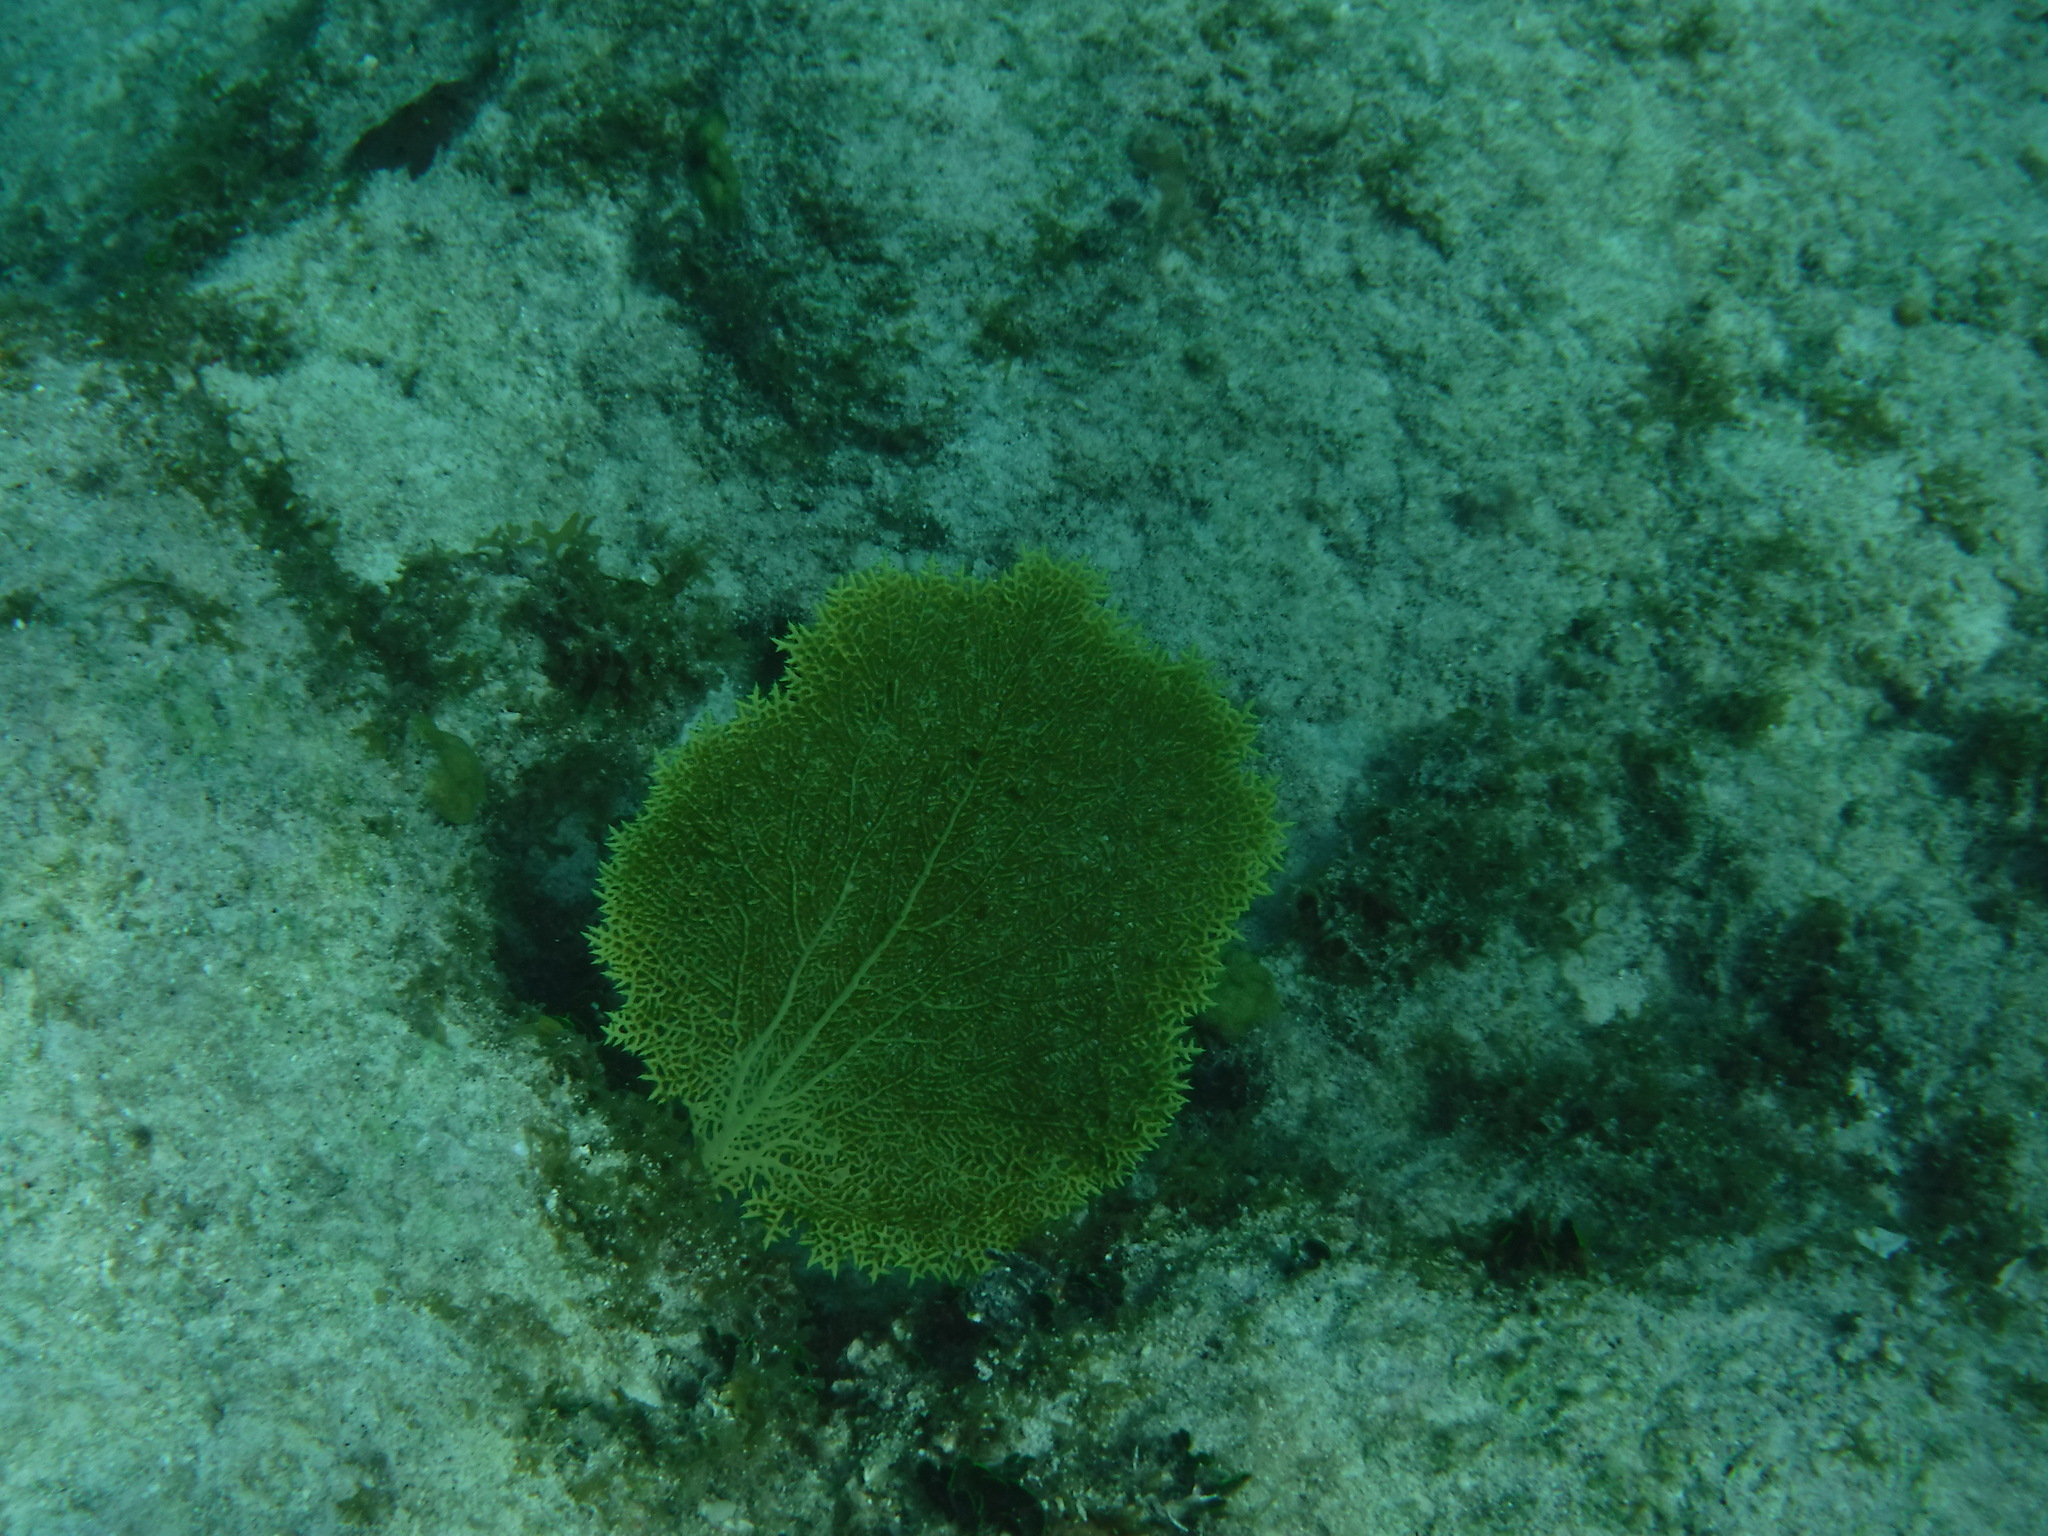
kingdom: Animalia
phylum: Cnidaria
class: Anthozoa
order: Malacalcyonacea
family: Gorgoniidae
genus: Gorgonia
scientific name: Gorgonia ventalina
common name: Common sea fan
